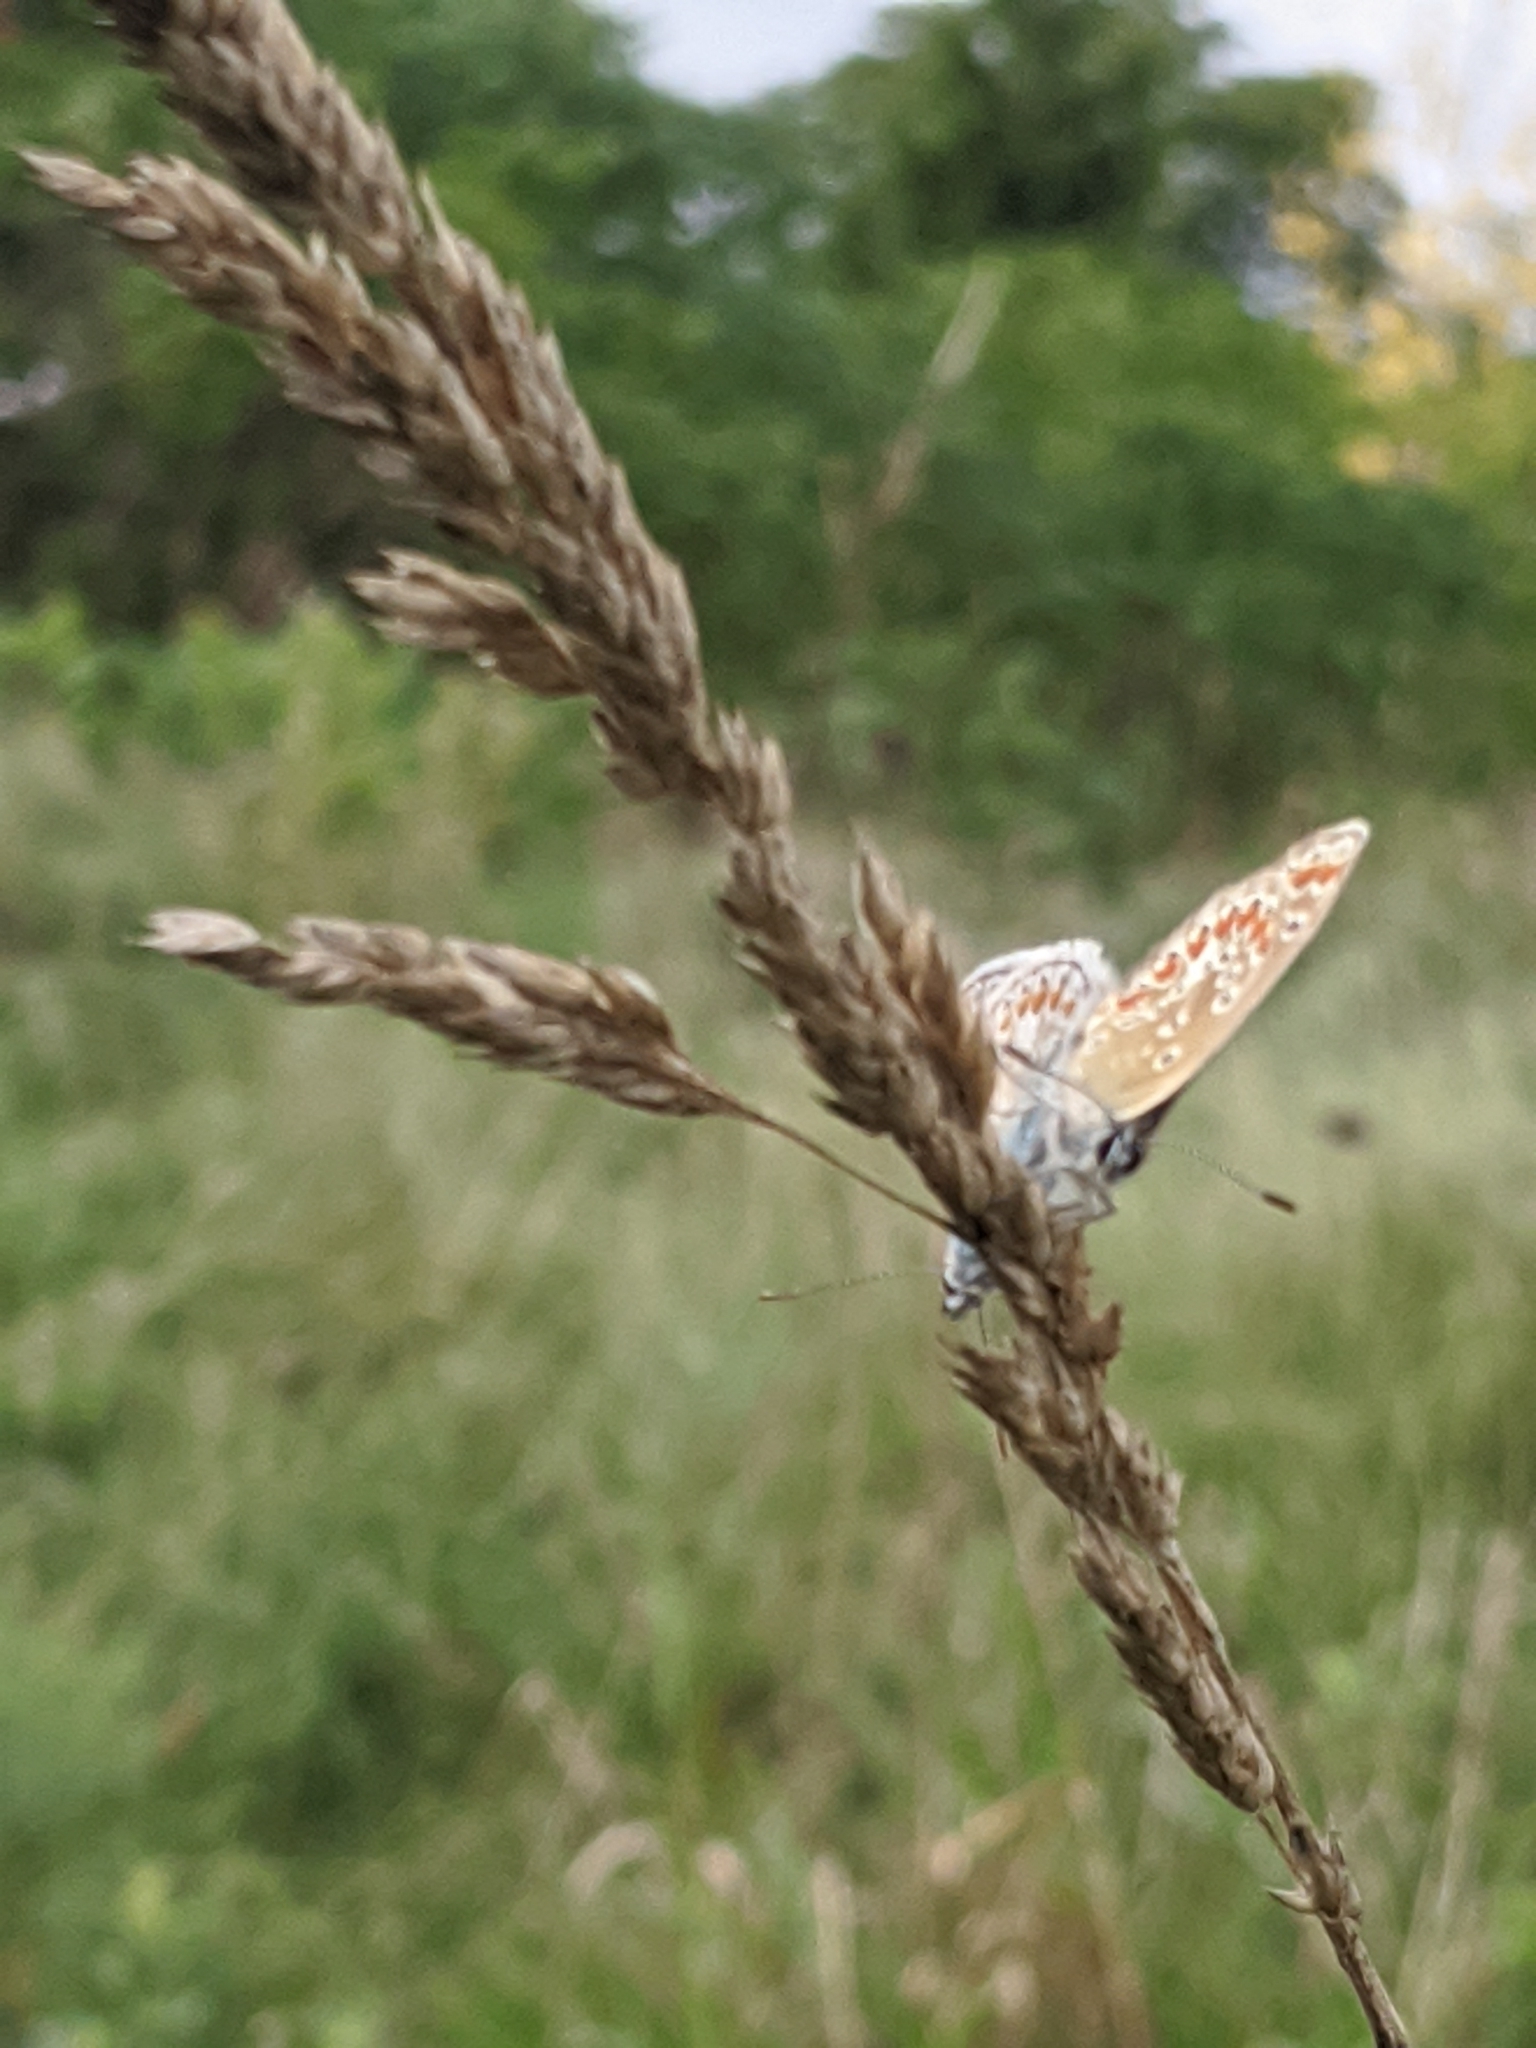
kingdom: Animalia
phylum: Arthropoda
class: Insecta
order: Lepidoptera
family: Lycaenidae
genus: Polyommatus
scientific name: Polyommatus icarus
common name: Common blue
